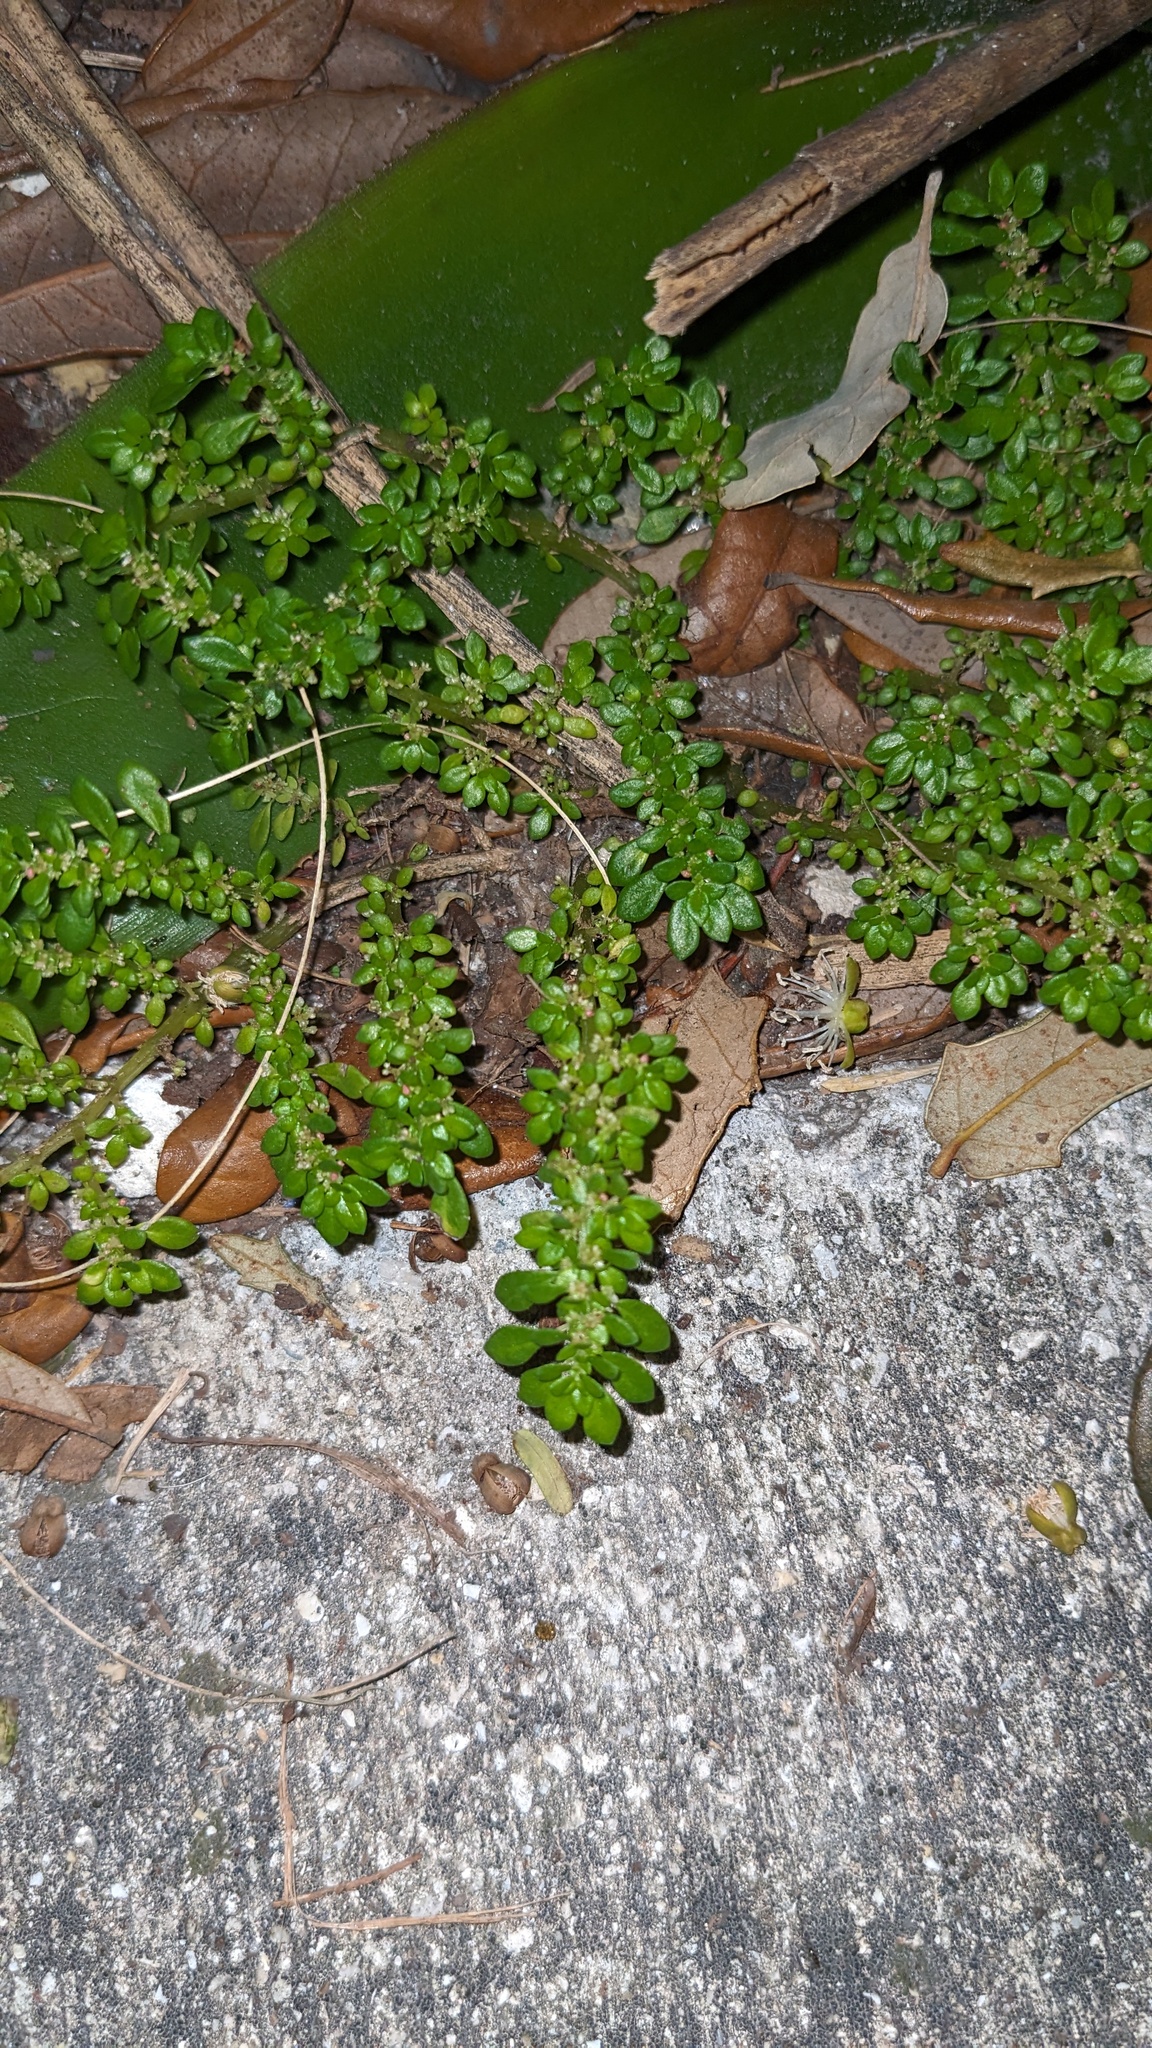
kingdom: Plantae
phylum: Tracheophyta
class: Magnoliopsida
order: Rosales
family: Urticaceae
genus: Pilea
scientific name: Pilea microphylla
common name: Artillery-plant
